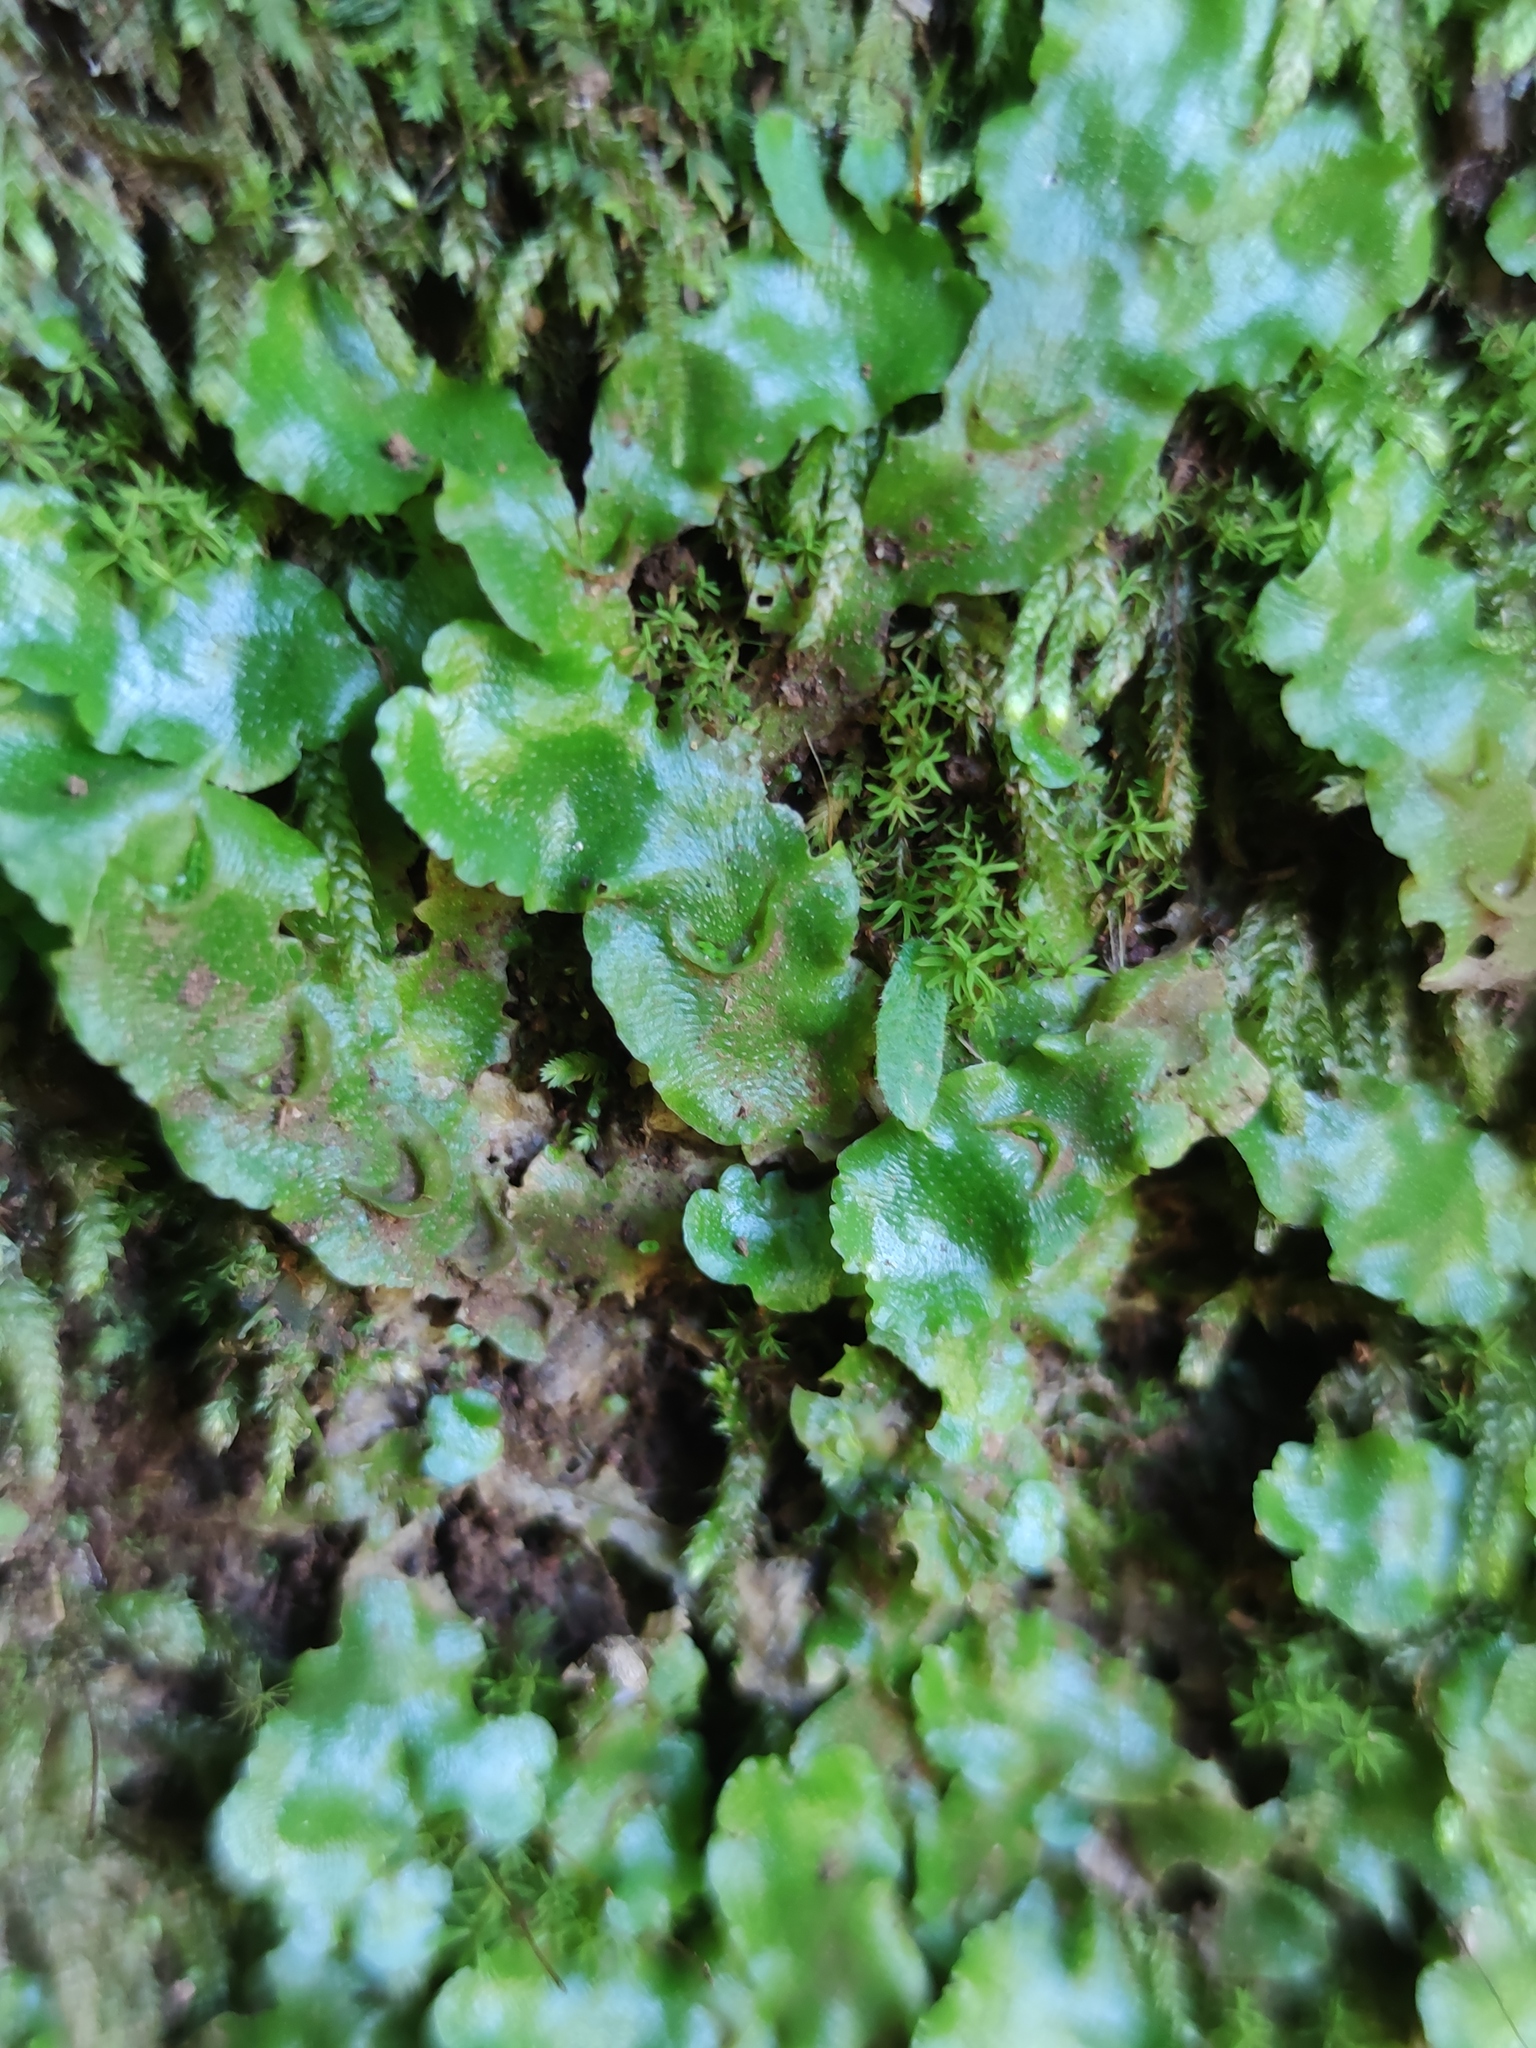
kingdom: Plantae
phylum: Marchantiophyta
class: Marchantiopsida
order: Lunulariales
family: Lunulariaceae
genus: Lunularia
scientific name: Lunularia cruciata
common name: Crescent-cup liverwort
